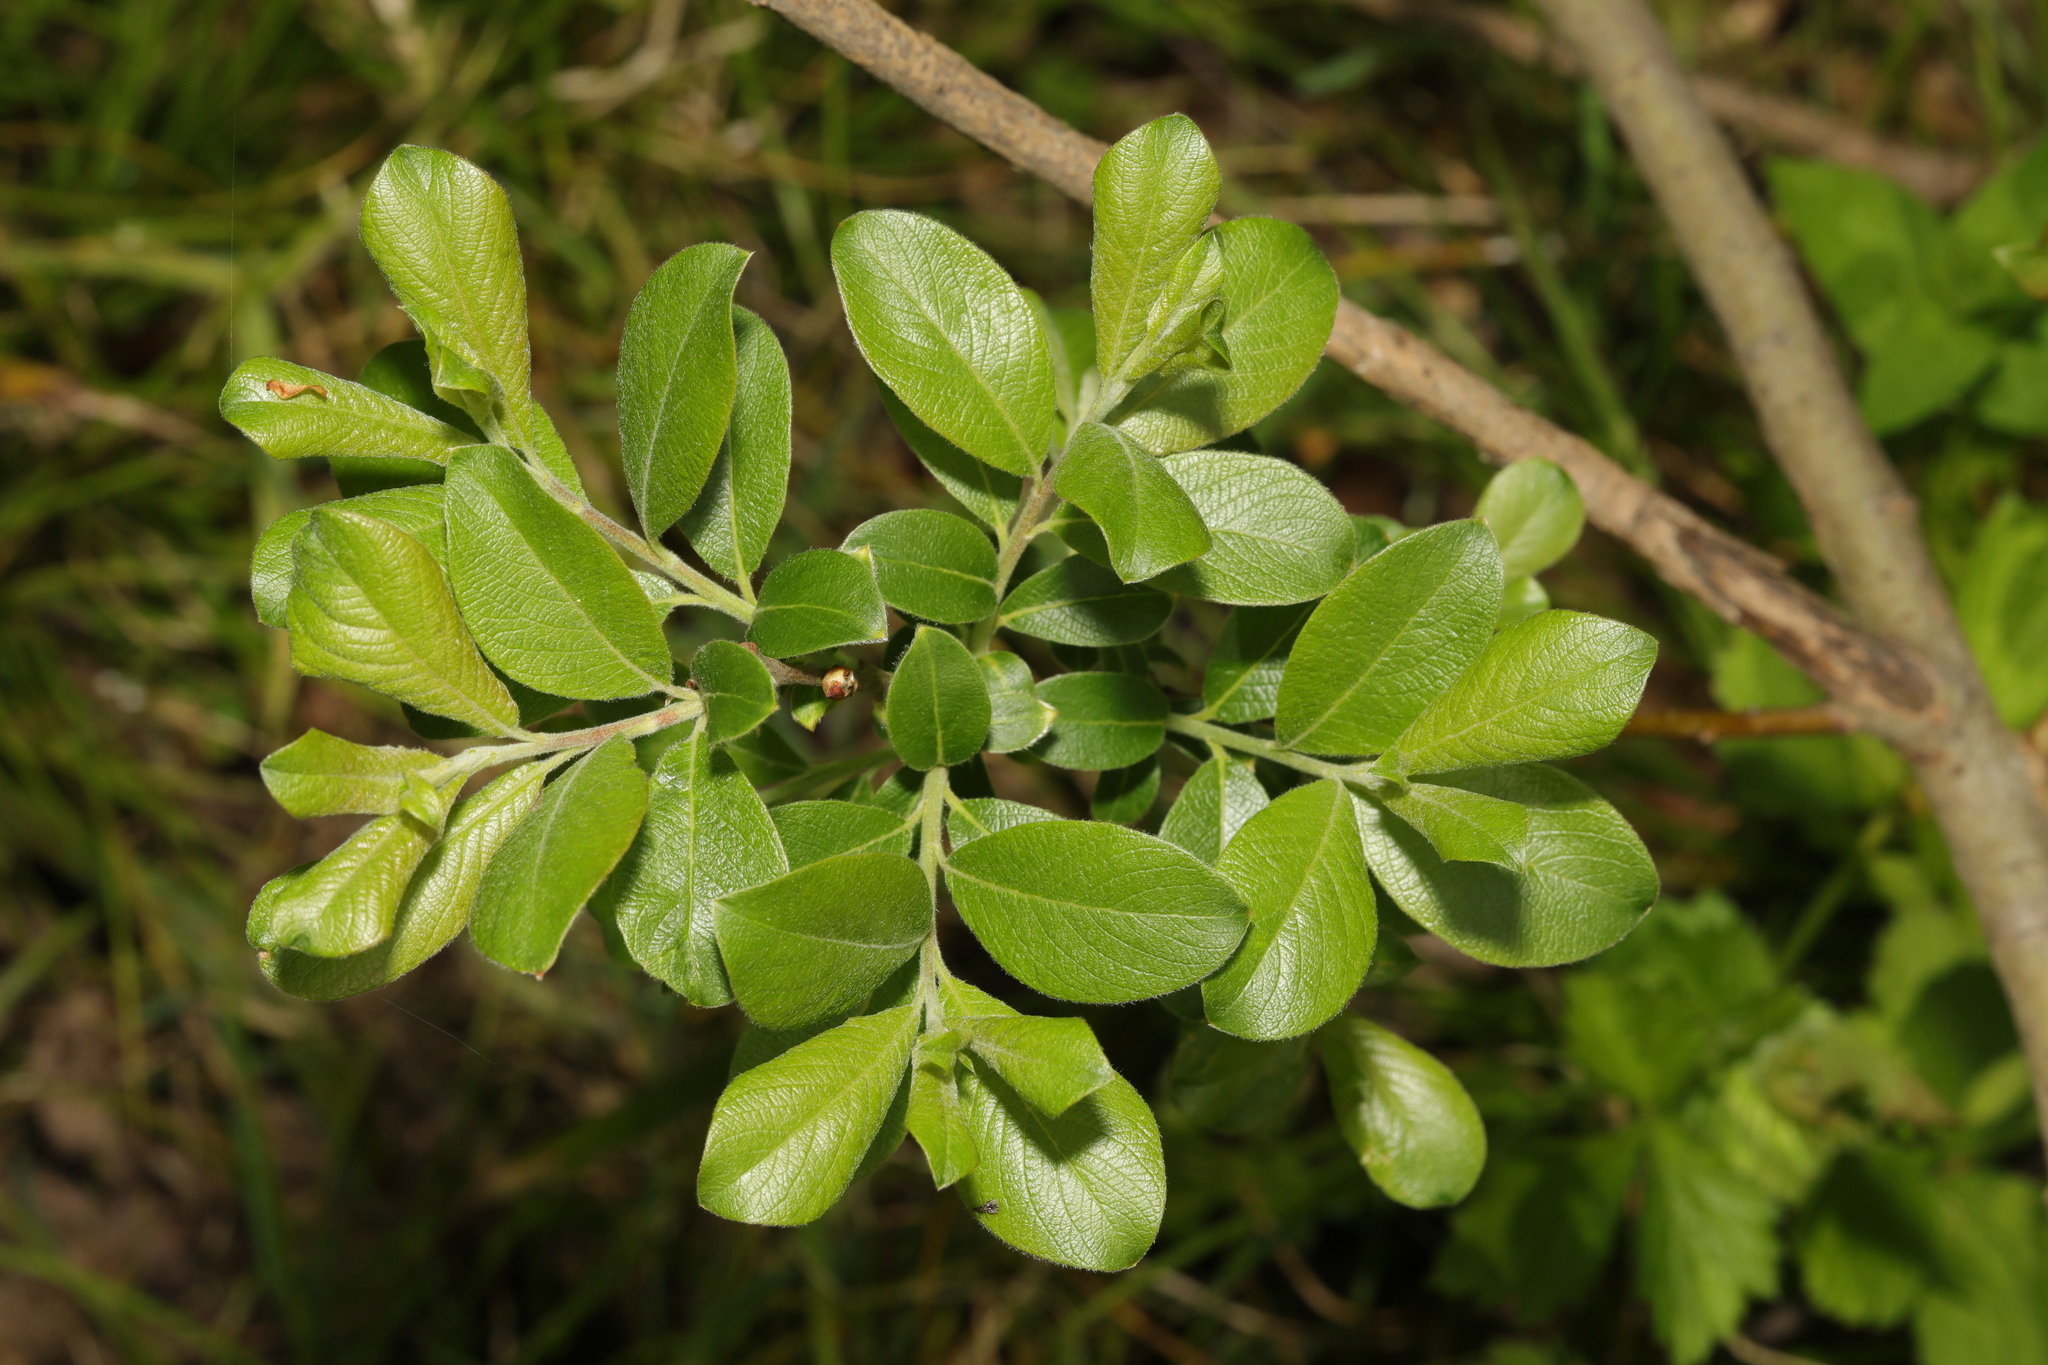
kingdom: Plantae
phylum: Tracheophyta
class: Magnoliopsida
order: Malpighiales
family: Salicaceae
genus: Salix
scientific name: Salix cinerea
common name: Common sallow
